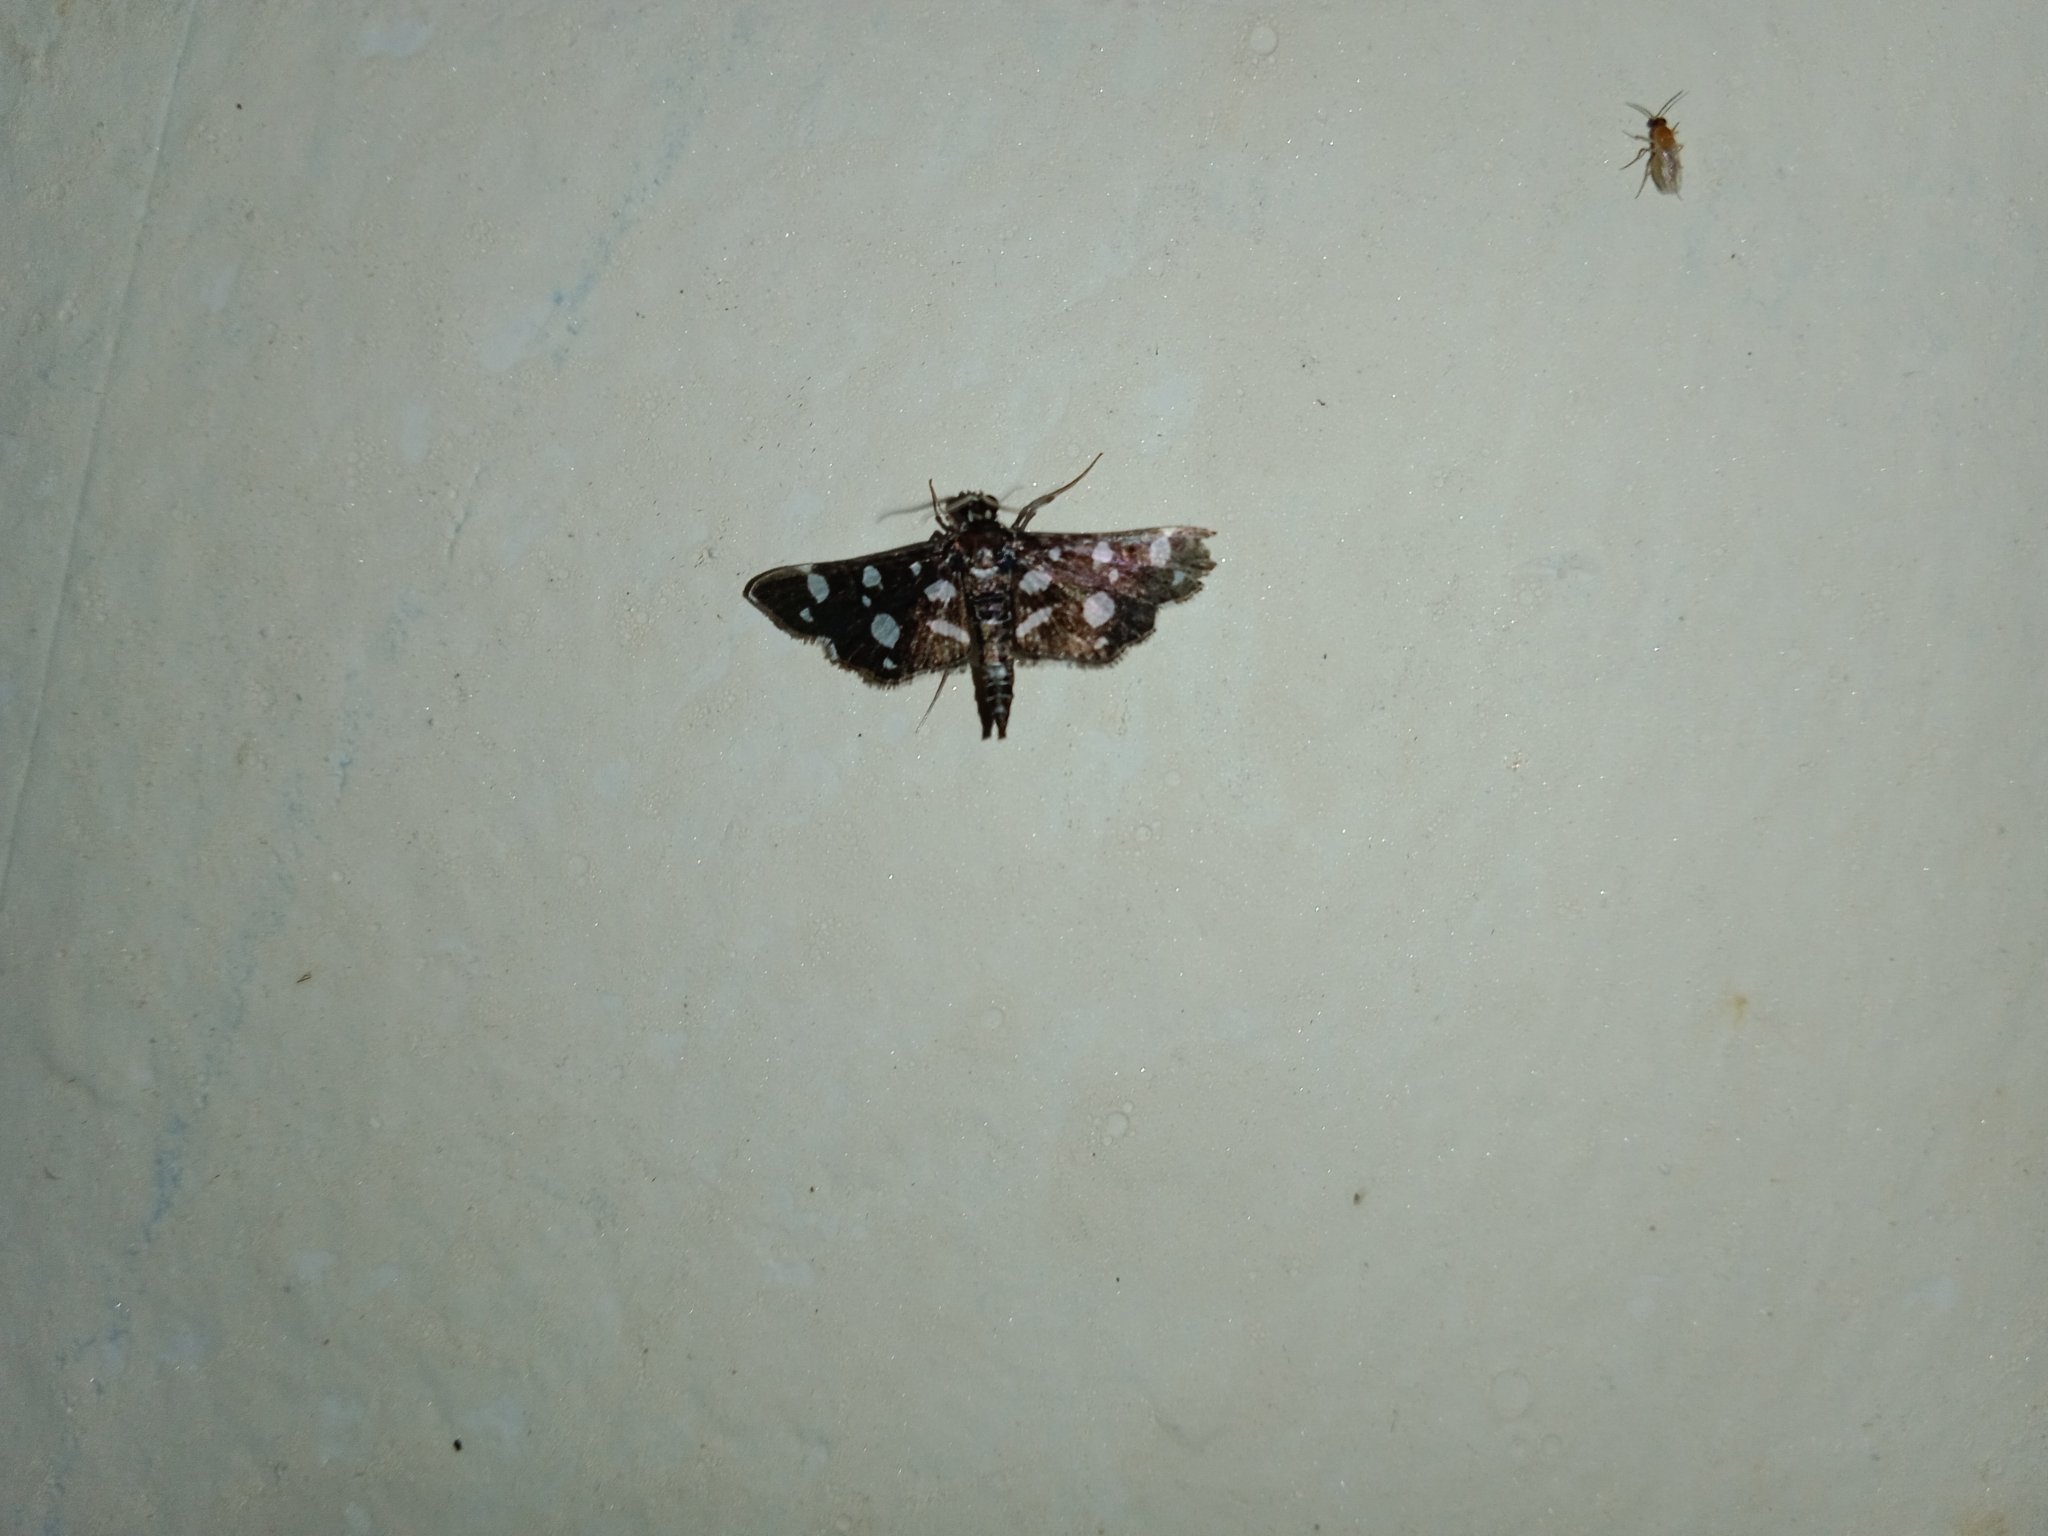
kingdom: Animalia
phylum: Arthropoda
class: Insecta
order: Lepidoptera
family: Crambidae
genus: Bocchoris
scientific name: Bocchoris inspersalis
